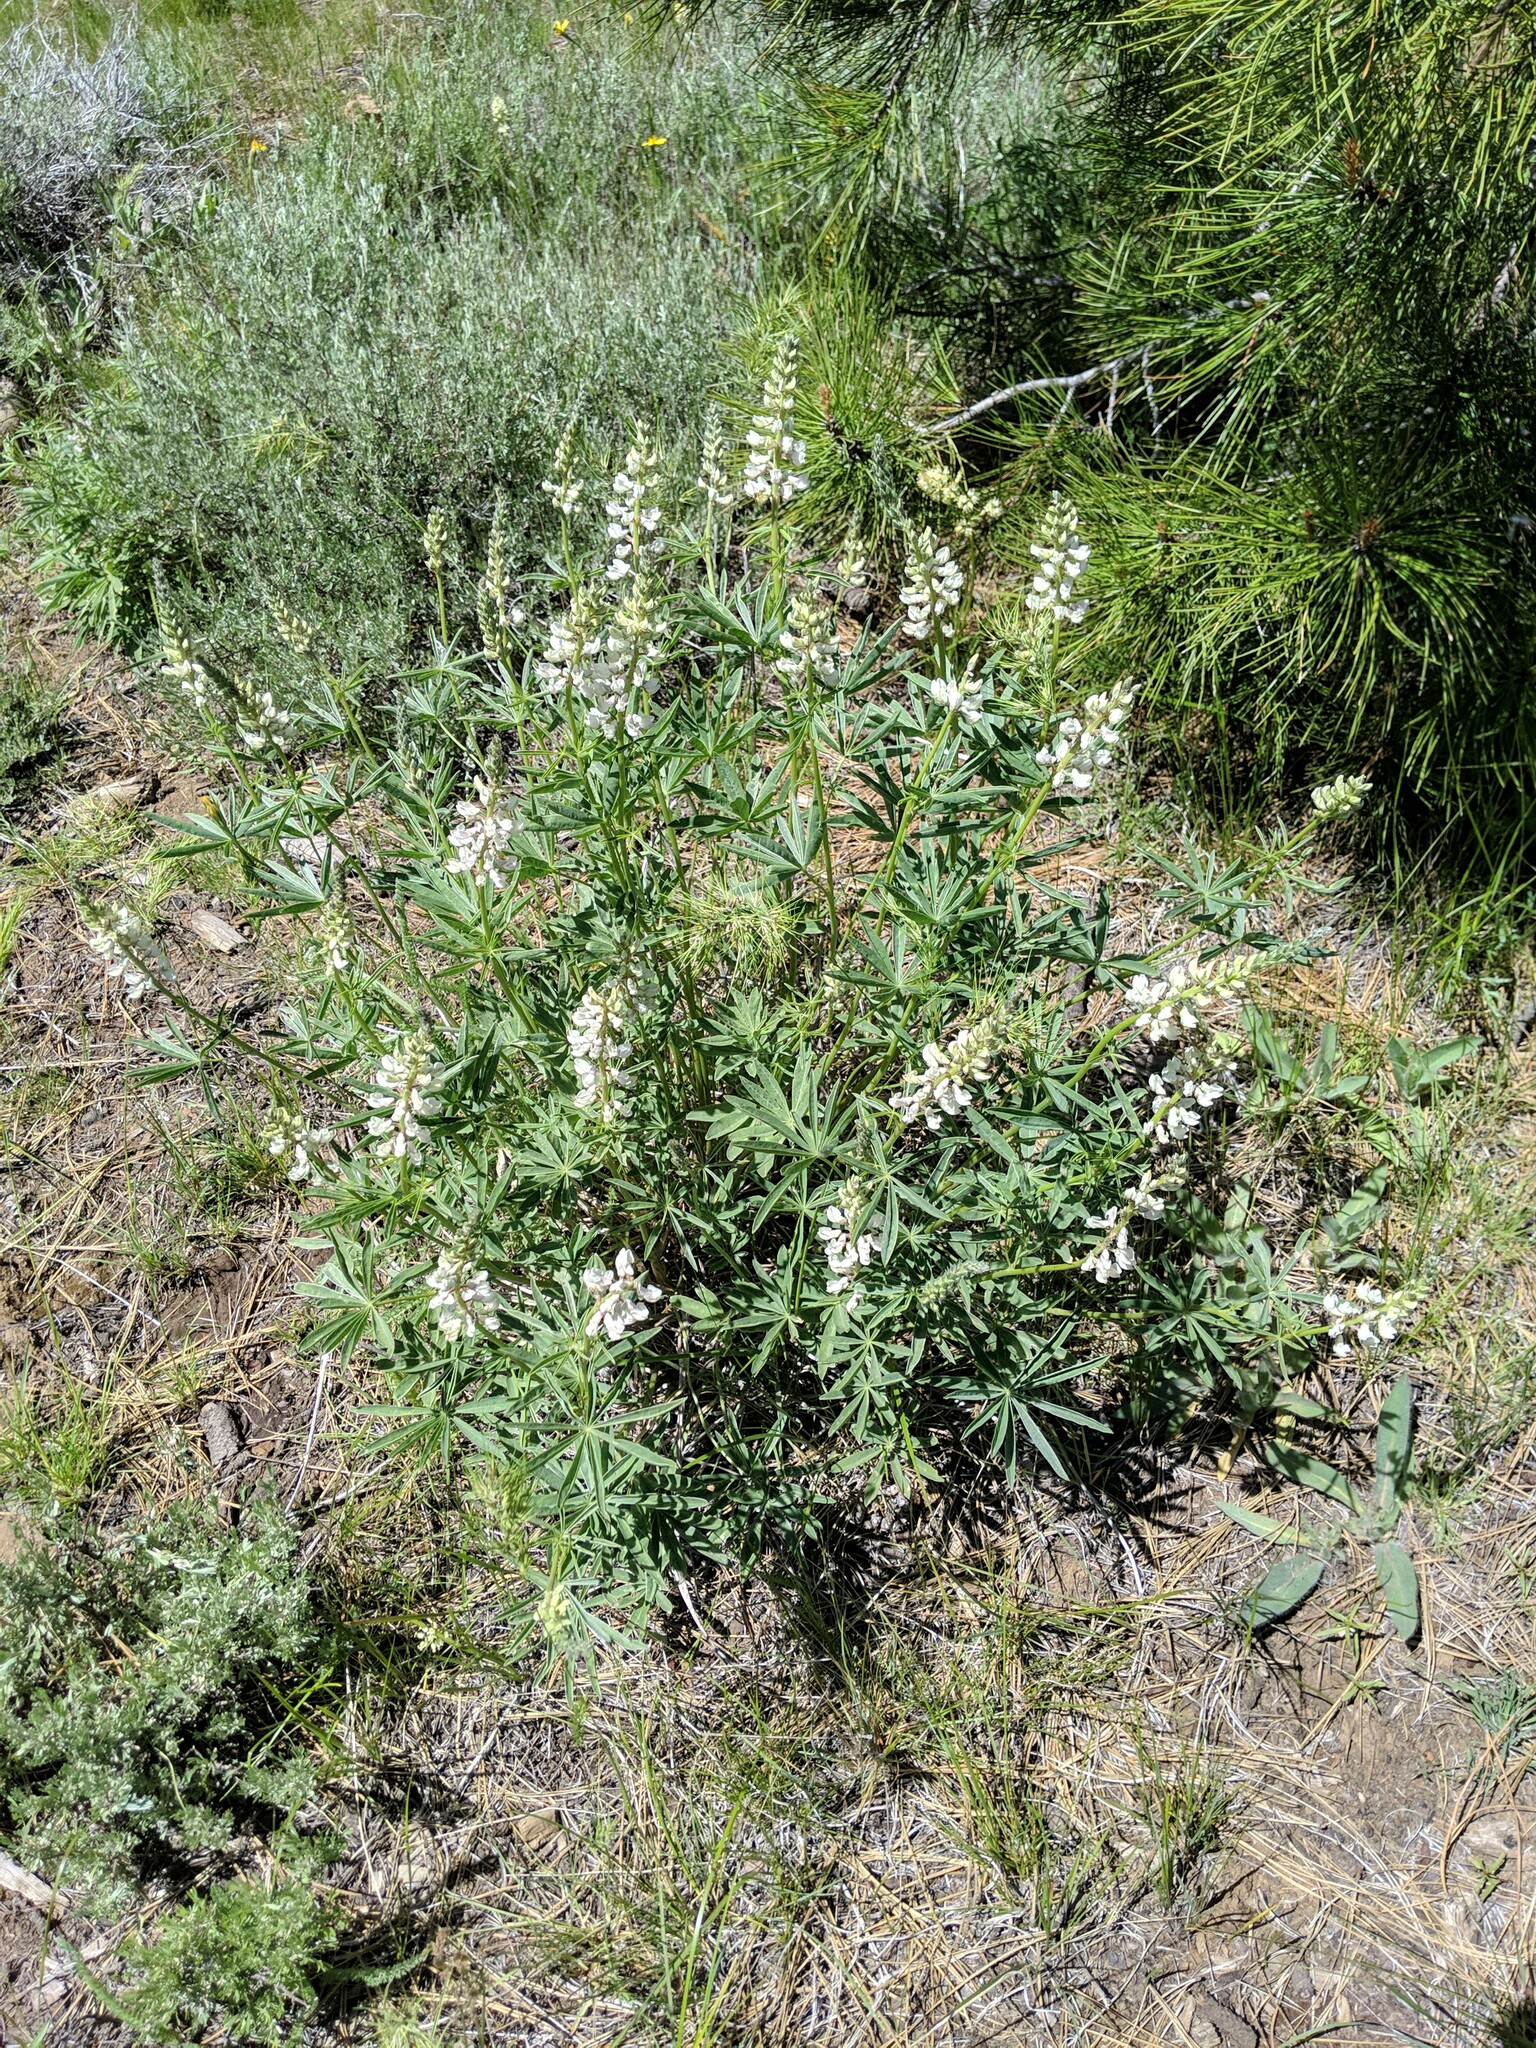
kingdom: Plantae
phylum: Tracheophyta
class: Magnoliopsida
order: Fabales
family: Fabaceae
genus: Lupinus
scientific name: Lupinus arbustus
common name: Montana lupine
